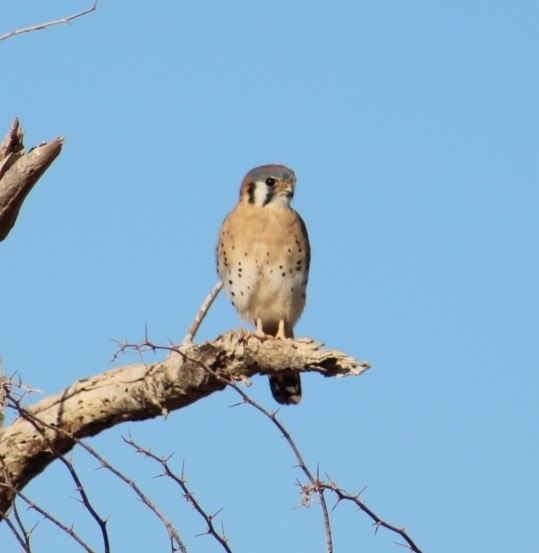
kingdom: Animalia
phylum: Chordata
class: Aves
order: Falconiformes
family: Falconidae
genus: Falco
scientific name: Falco sparverius
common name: American kestrel
